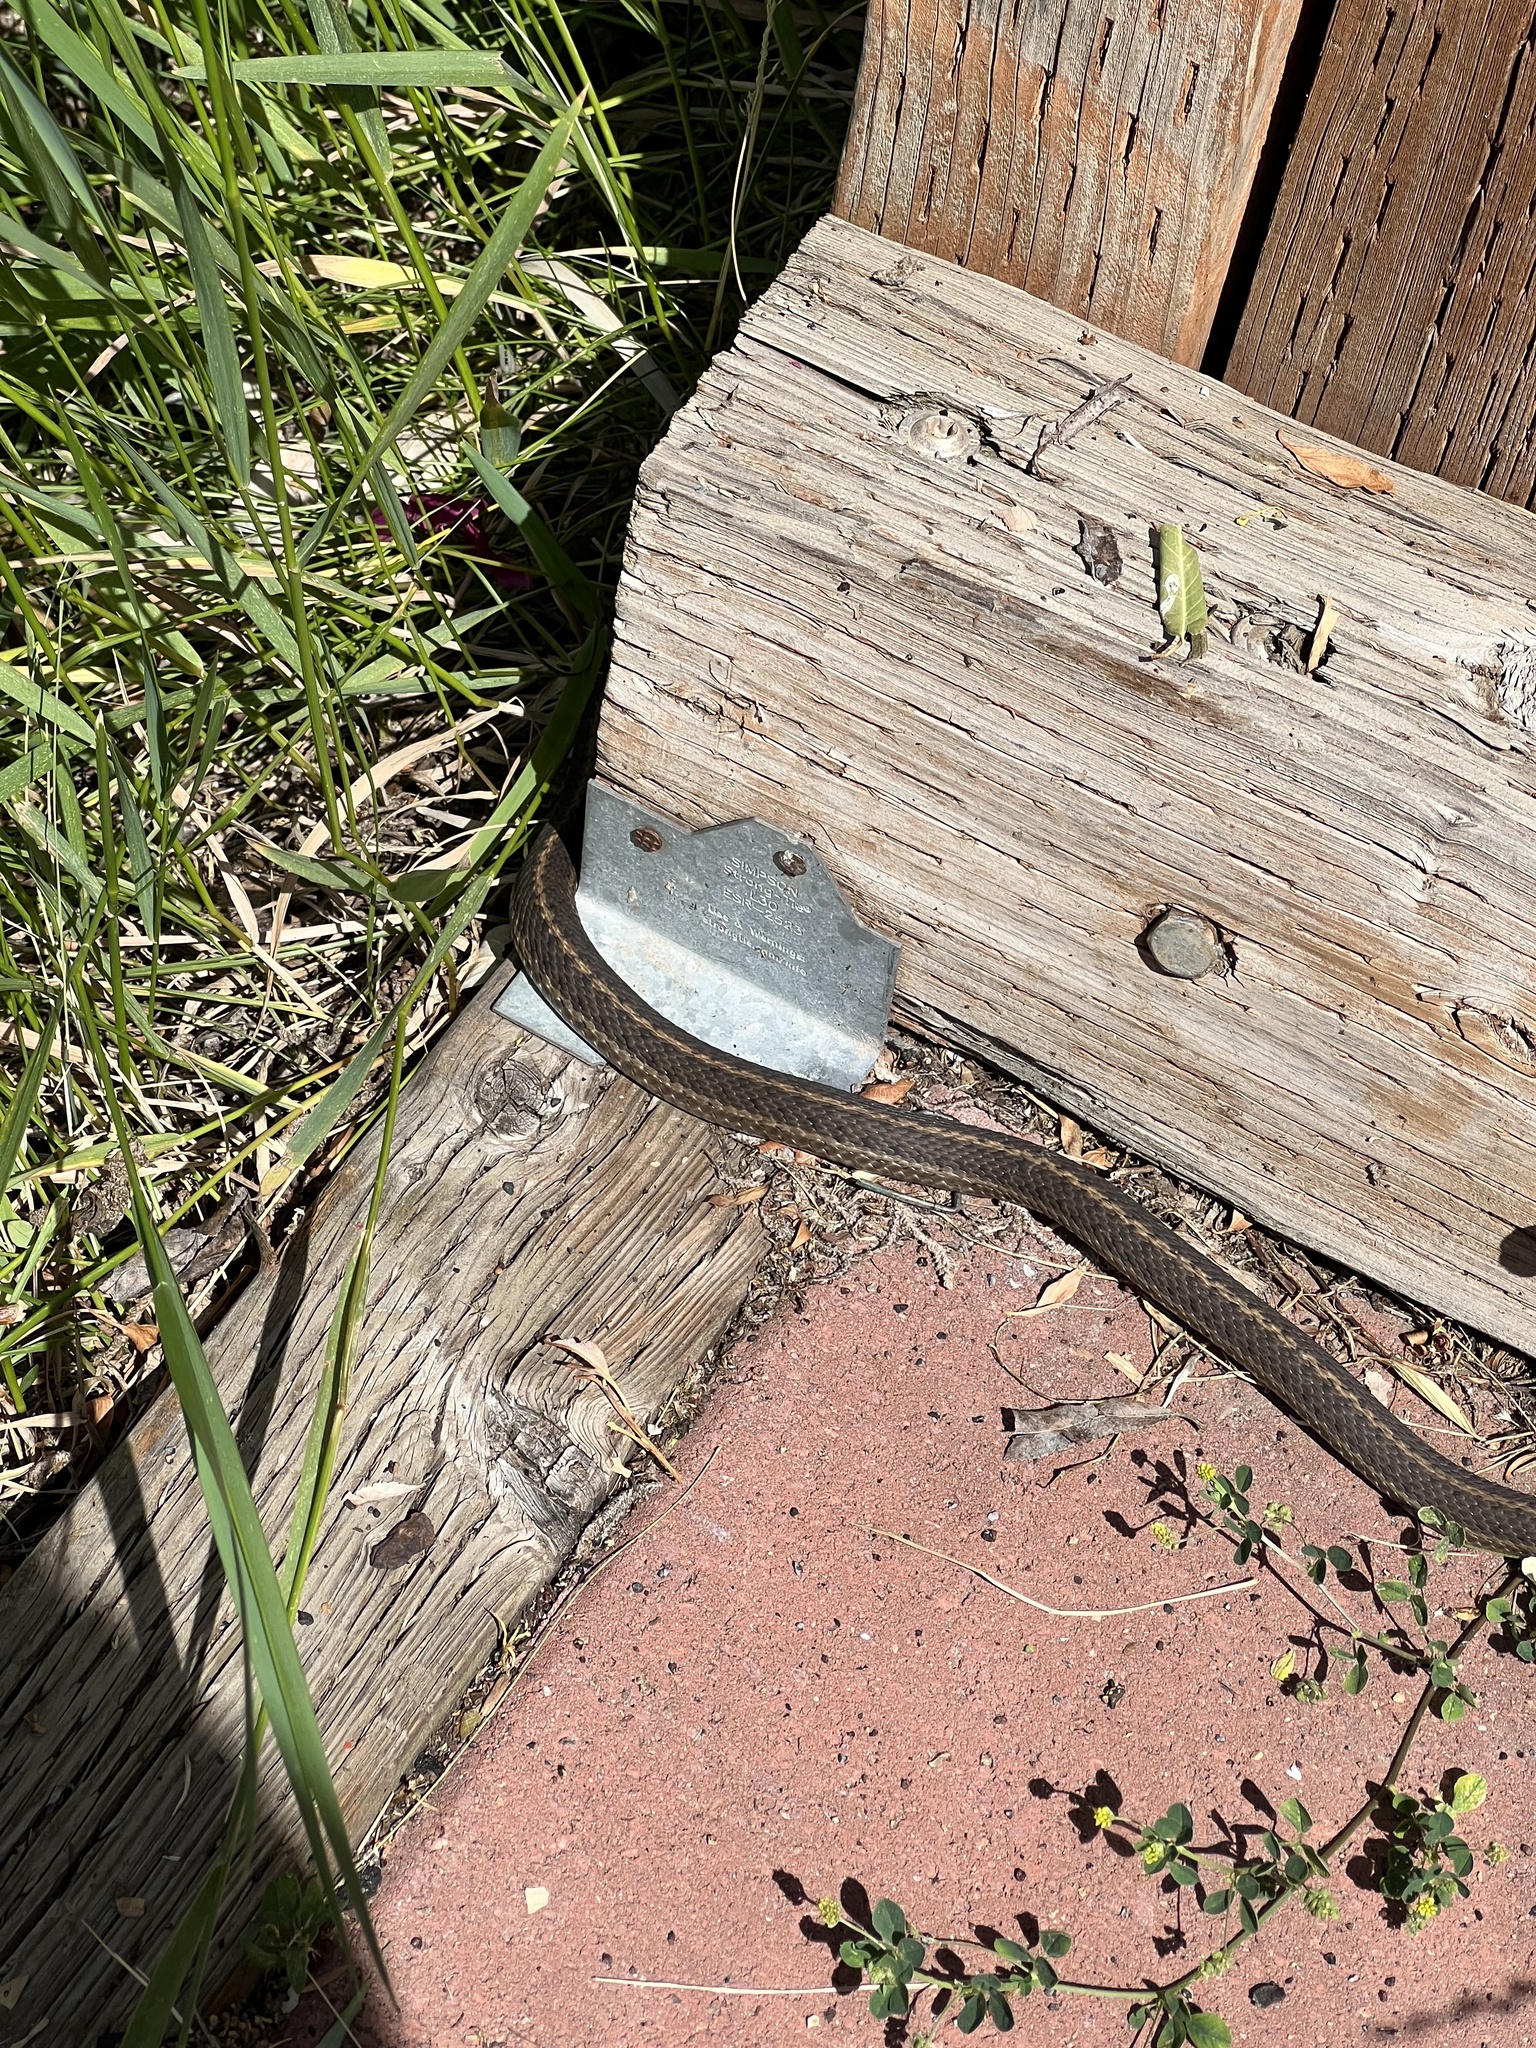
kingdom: Animalia
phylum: Chordata
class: Squamata
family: Colubridae
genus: Thamnophis
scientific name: Thamnophis elegans
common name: Western terrestrial garter snake
